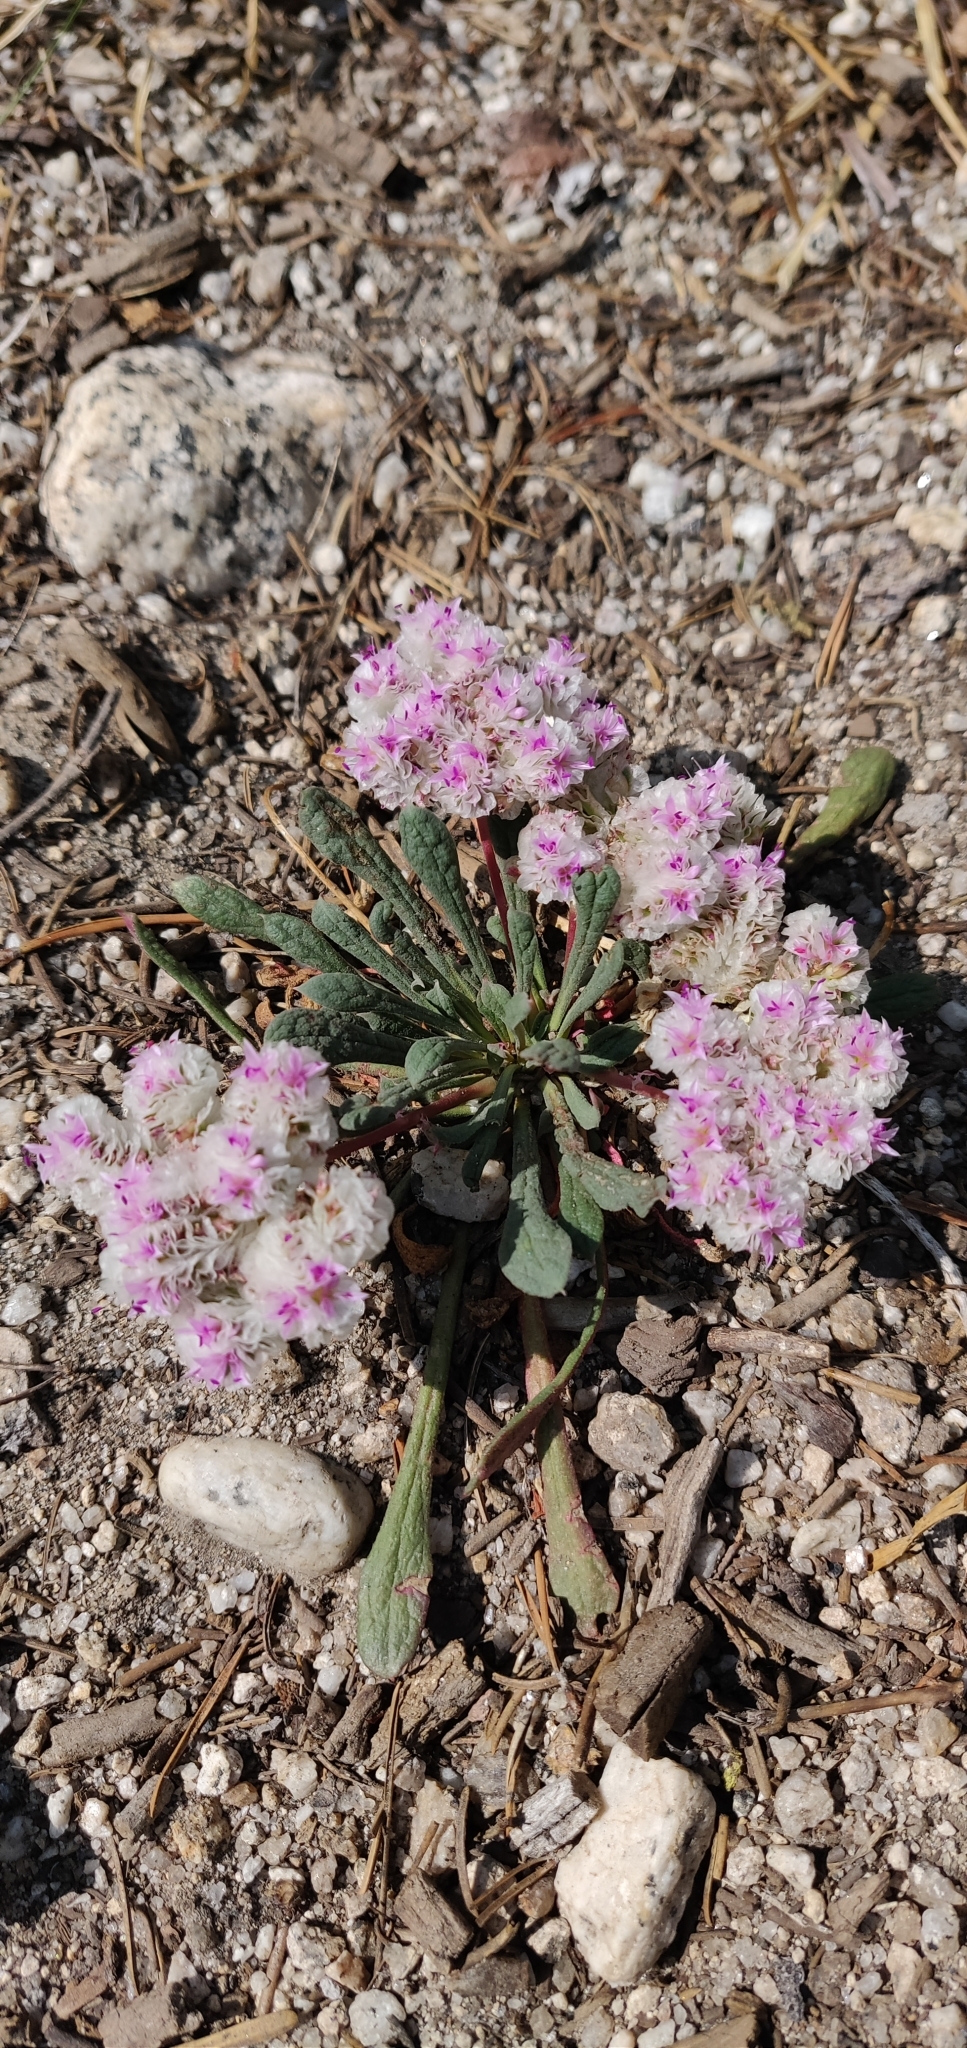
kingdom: Plantae
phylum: Tracheophyta
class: Magnoliopsida
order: Caryophyllales
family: Montiaceae
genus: Calyptridium
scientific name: Calyptridium monospermum
